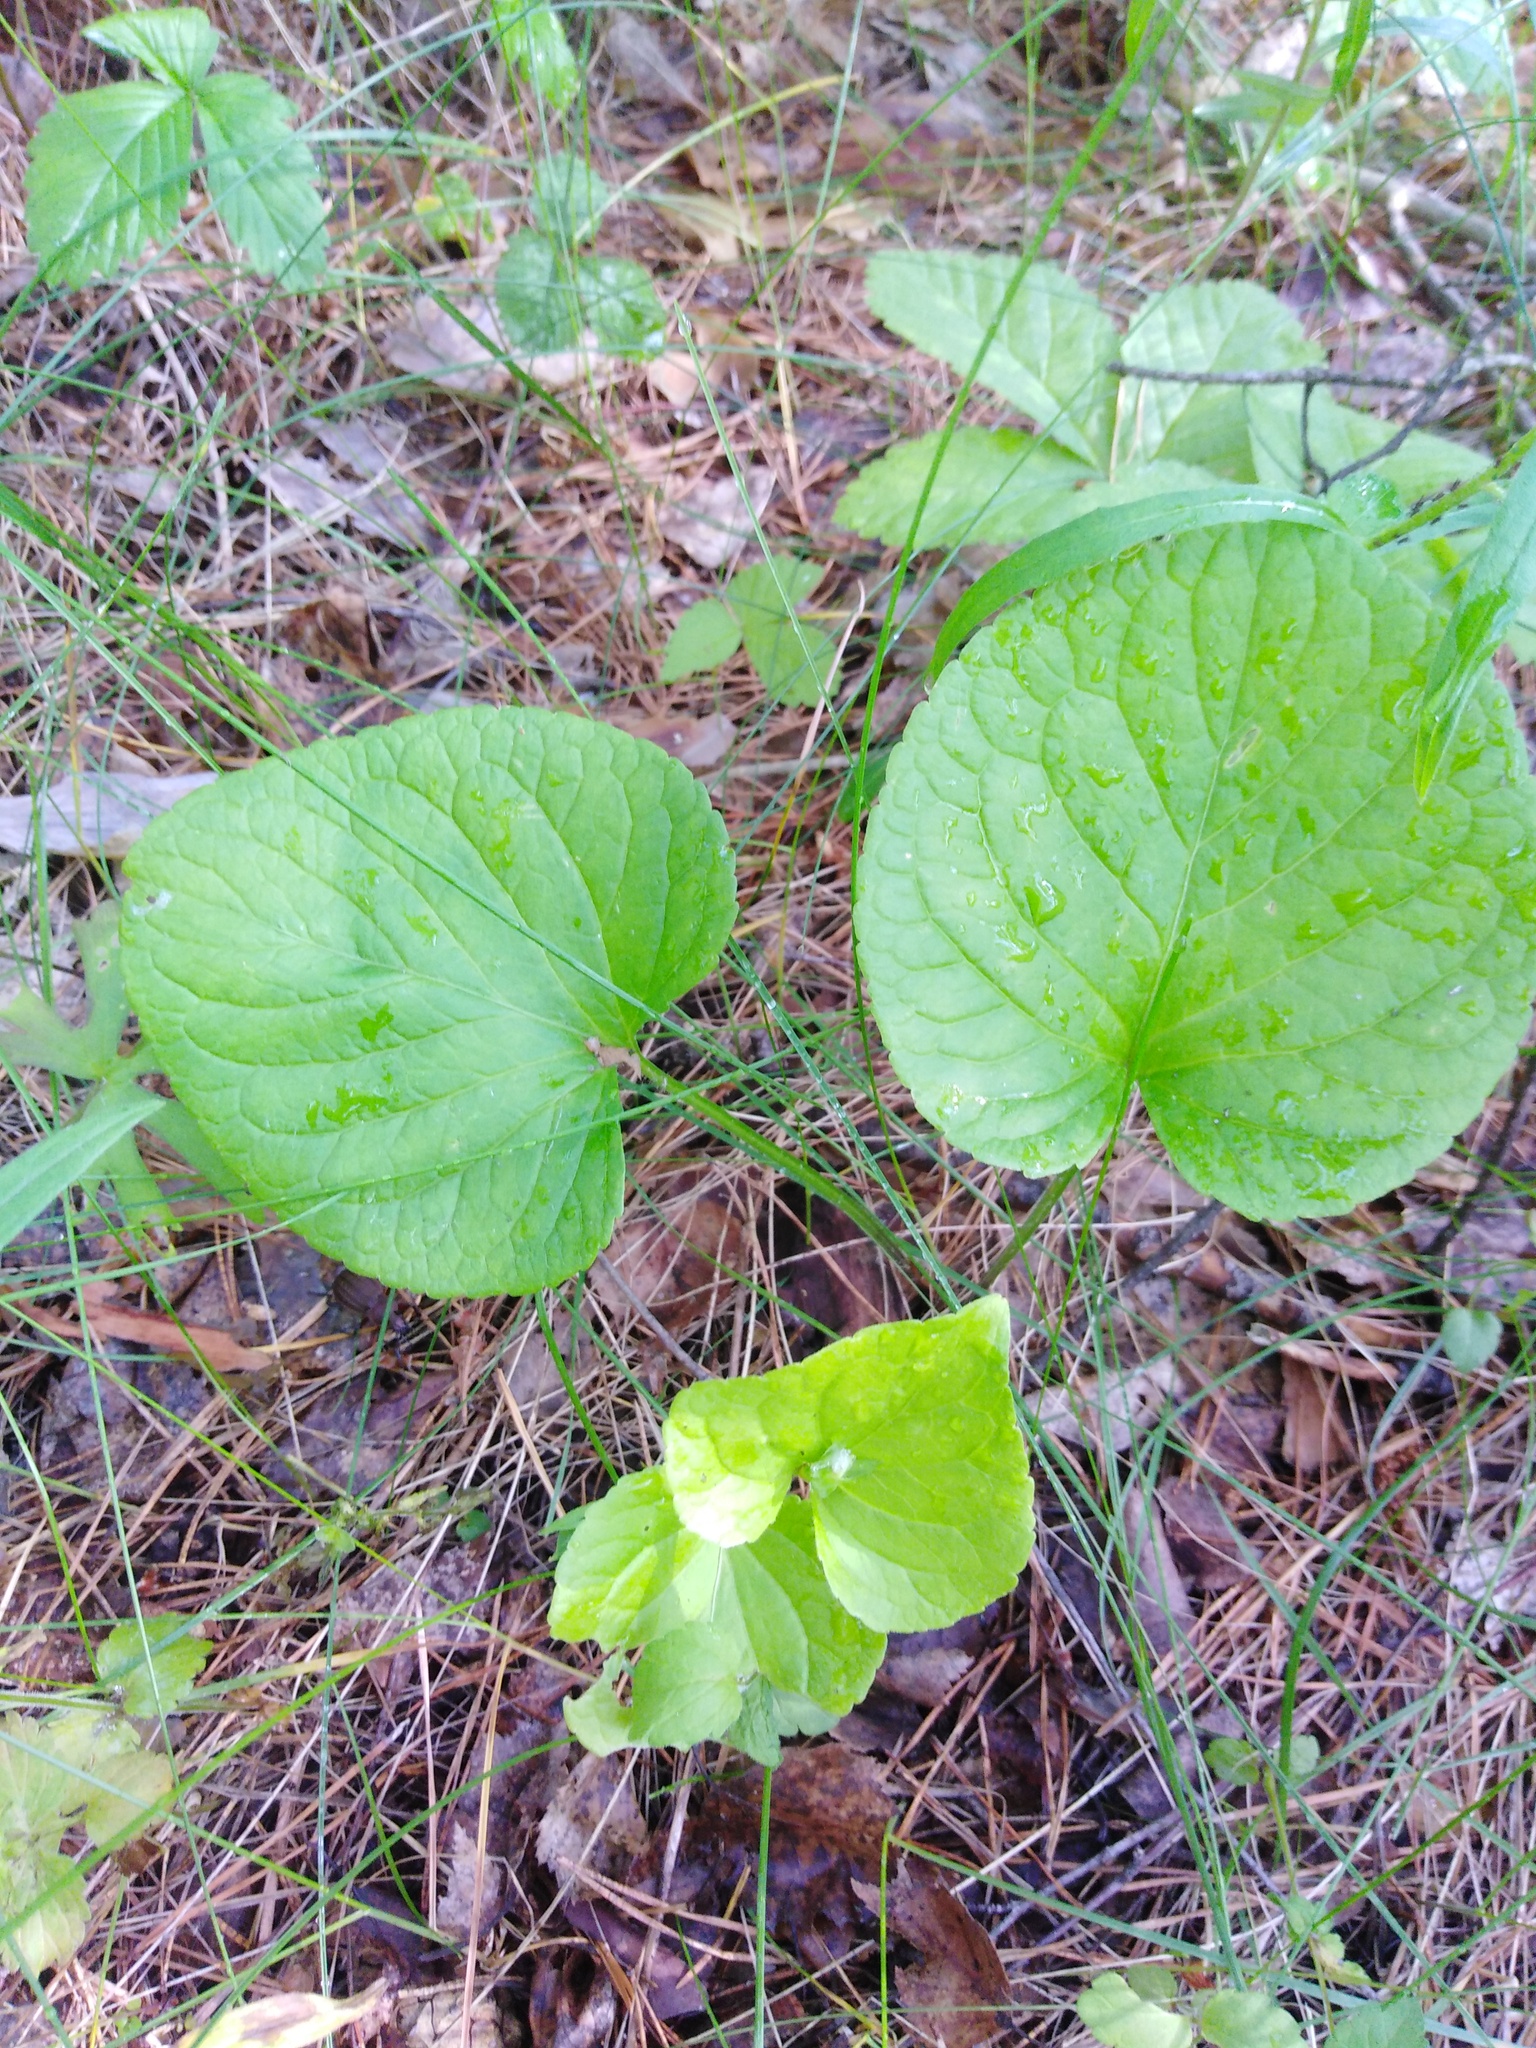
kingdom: Plantae
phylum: Tracheophyta
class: Magnoliopsida
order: Malpighiales
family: Violaceae
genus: Viola
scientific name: Viola mirabilis
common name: Wonder violet
